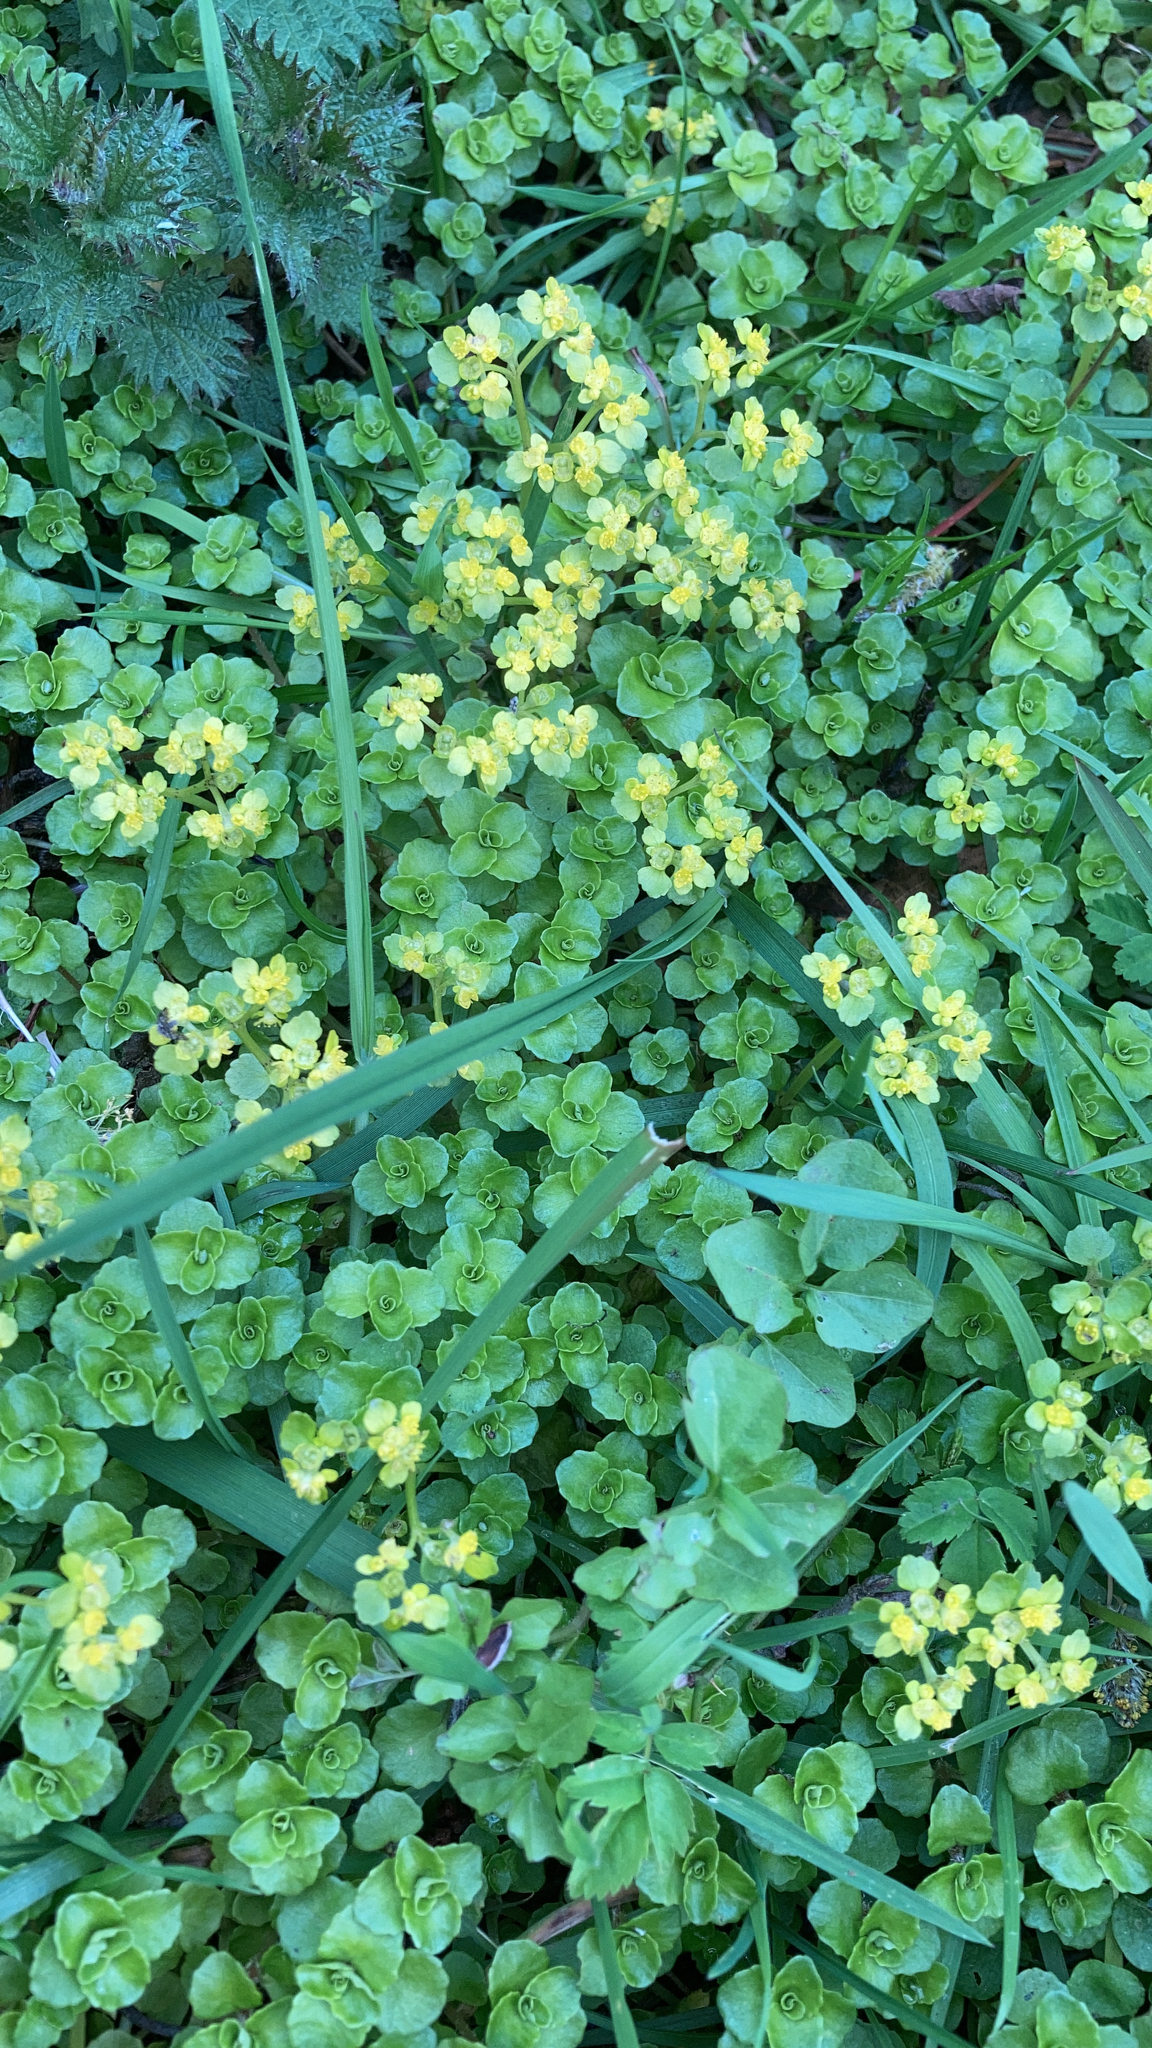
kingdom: Plantae
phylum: Tracheophyta
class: Magnoliopsida
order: Saxifragales
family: Saxifragaceae
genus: Chrysosplenium
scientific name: Chrysosplenium oppositifolium
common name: Opposite-leaved golden-saxifrage
